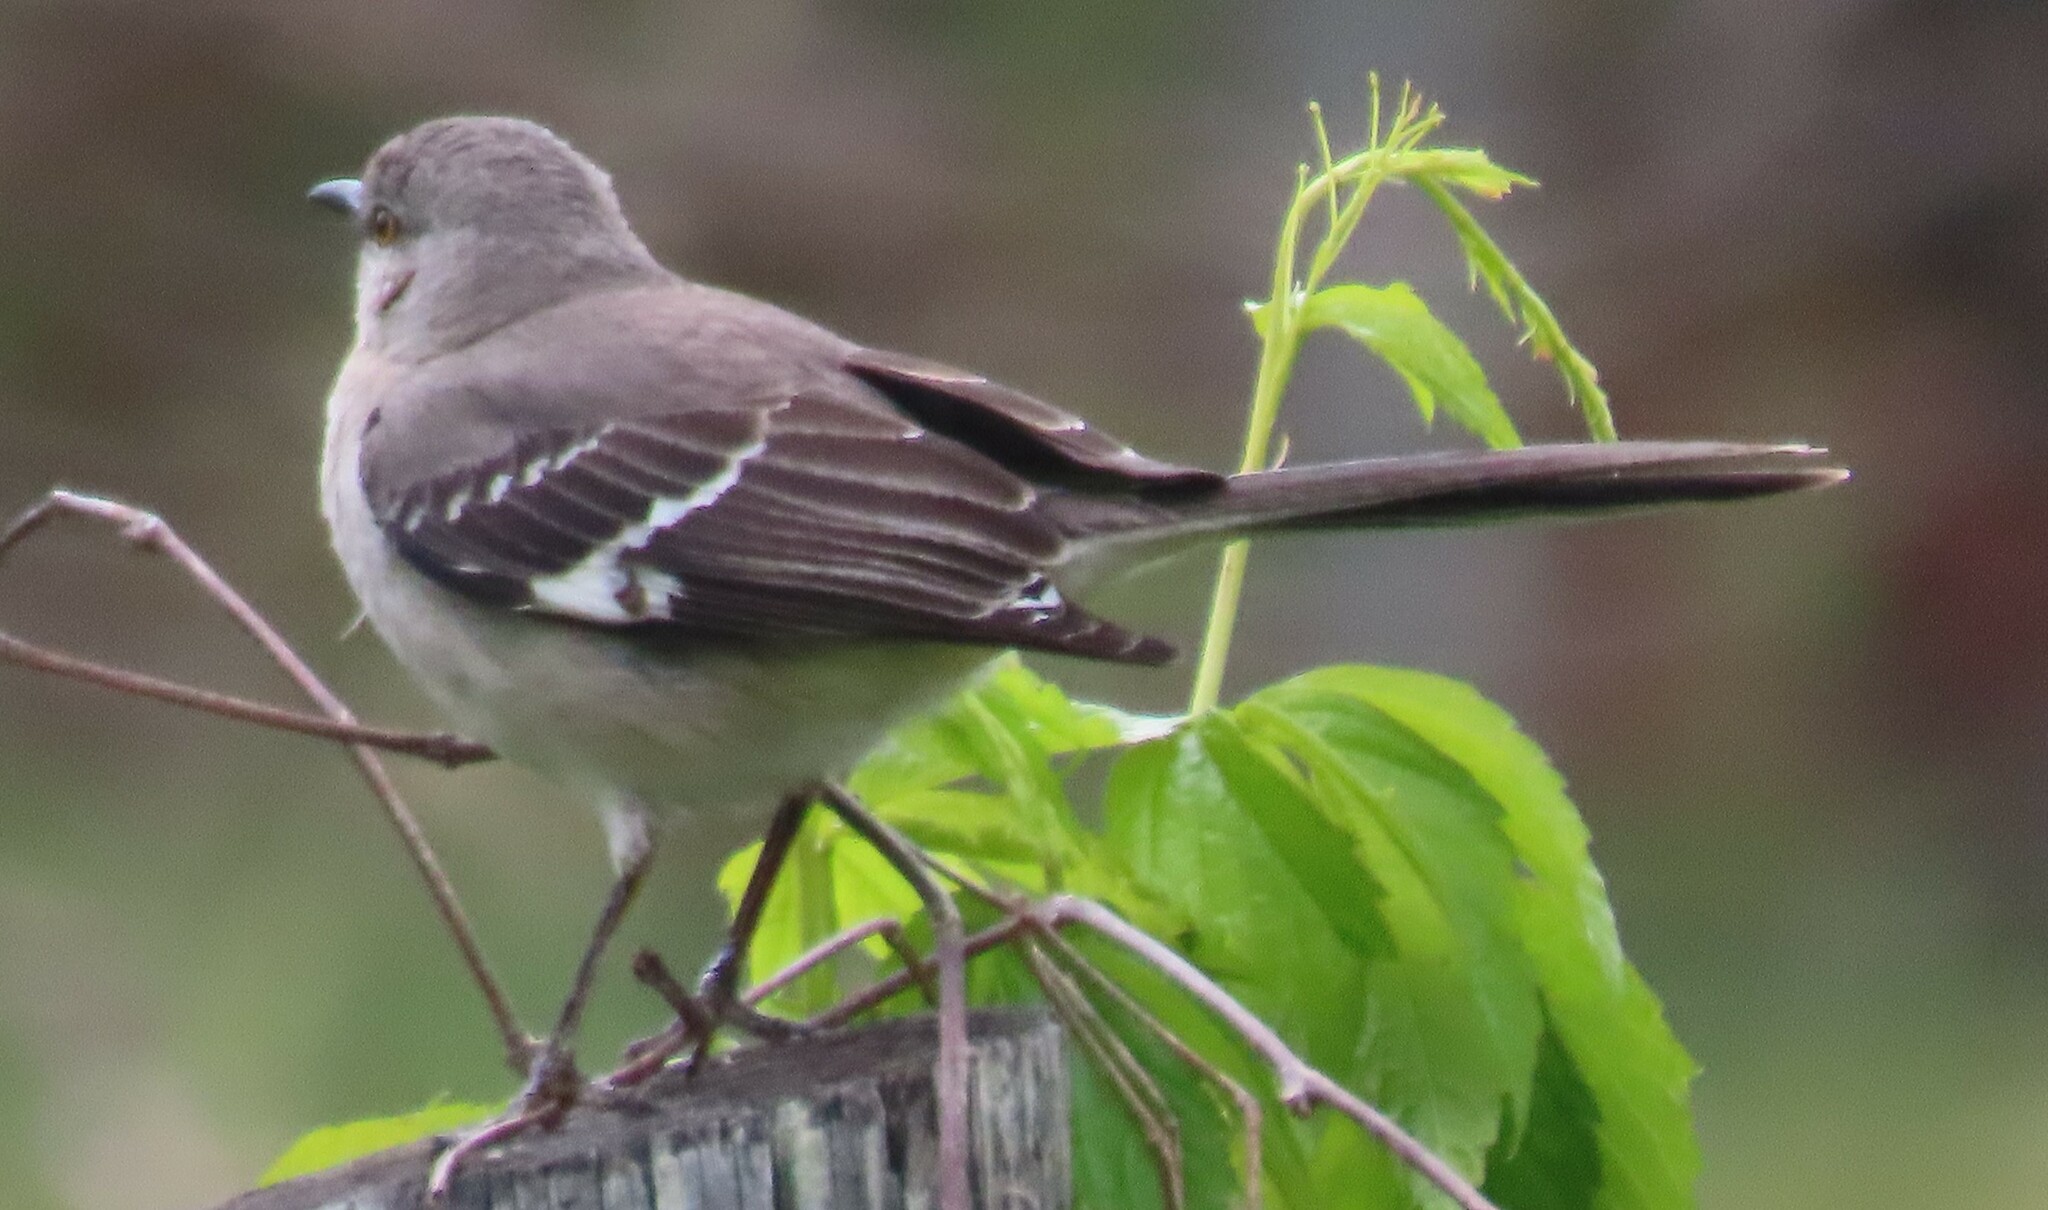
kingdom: Animalia
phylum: Chordata
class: Aves
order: Passeriformes
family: Mimidae
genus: Mimus
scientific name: Mimus polyglottos
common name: Northern mockingbird
